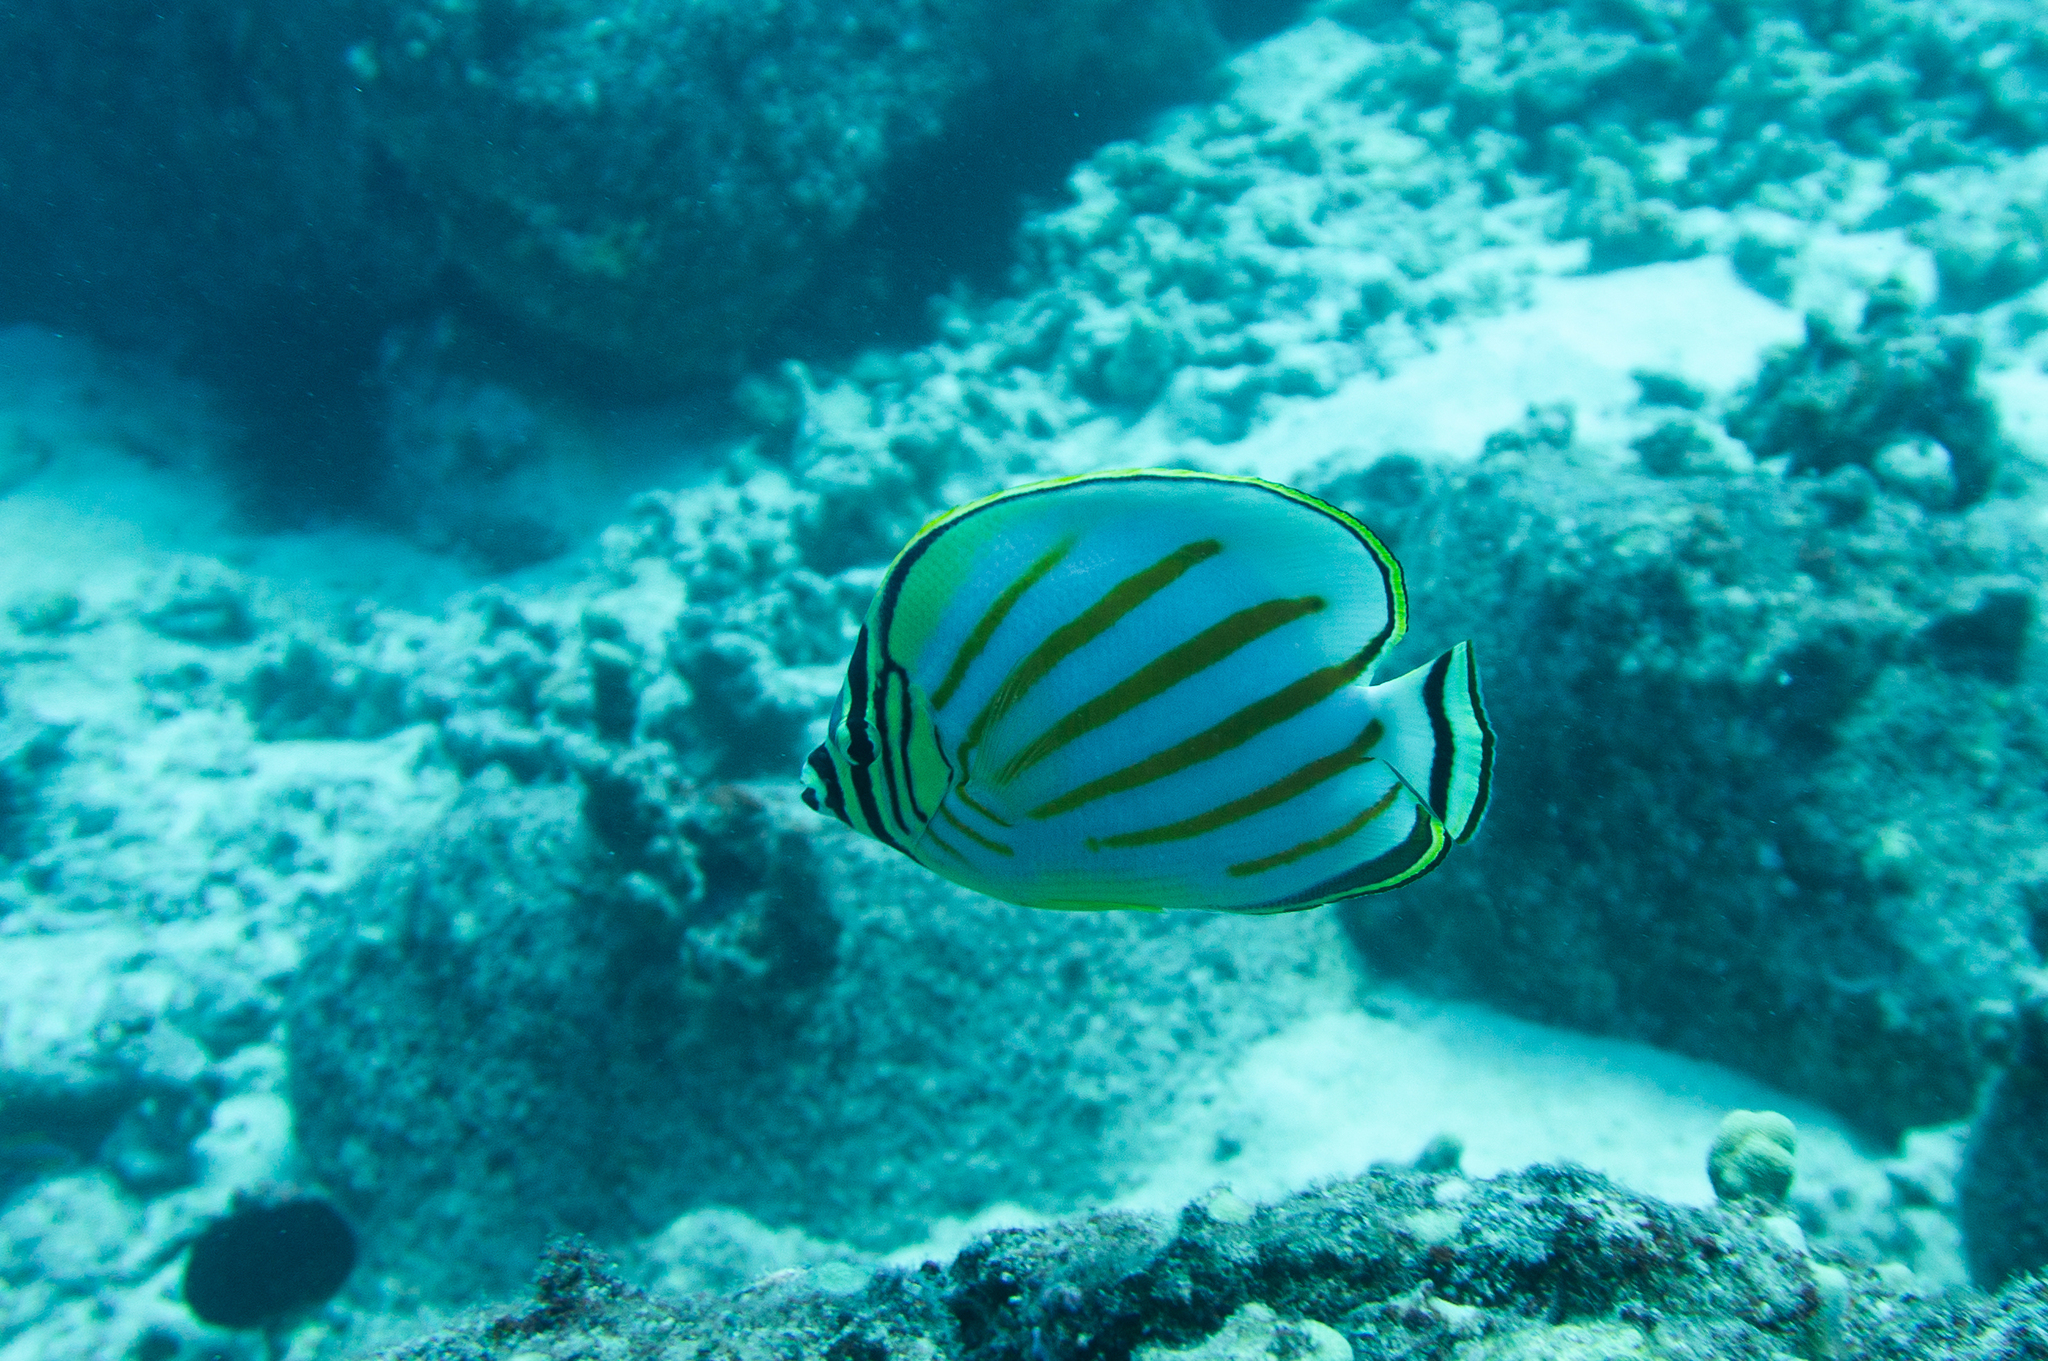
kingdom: Animalia
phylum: Chordata
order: Perciformes
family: Chaetodontidae
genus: Chaetodon
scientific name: Chaetodon ornatissimus
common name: Ornate butterflyfish
